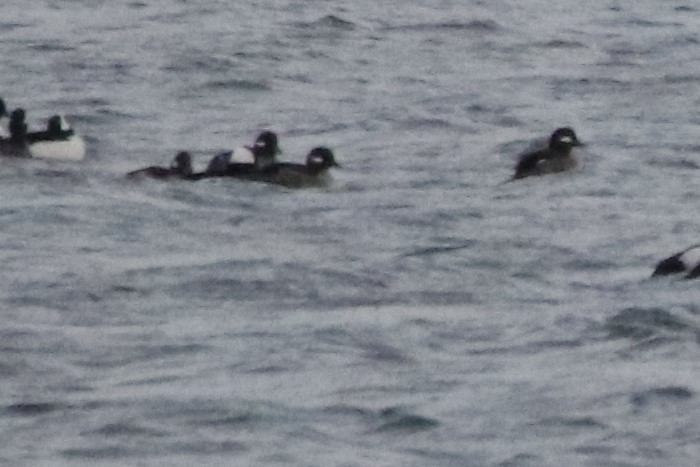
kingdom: Animalia
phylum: Chordata
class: Aves
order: Anseriformes
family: Anatidae
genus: Bucephala
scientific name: Bucephala albeola
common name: Bufflehead
